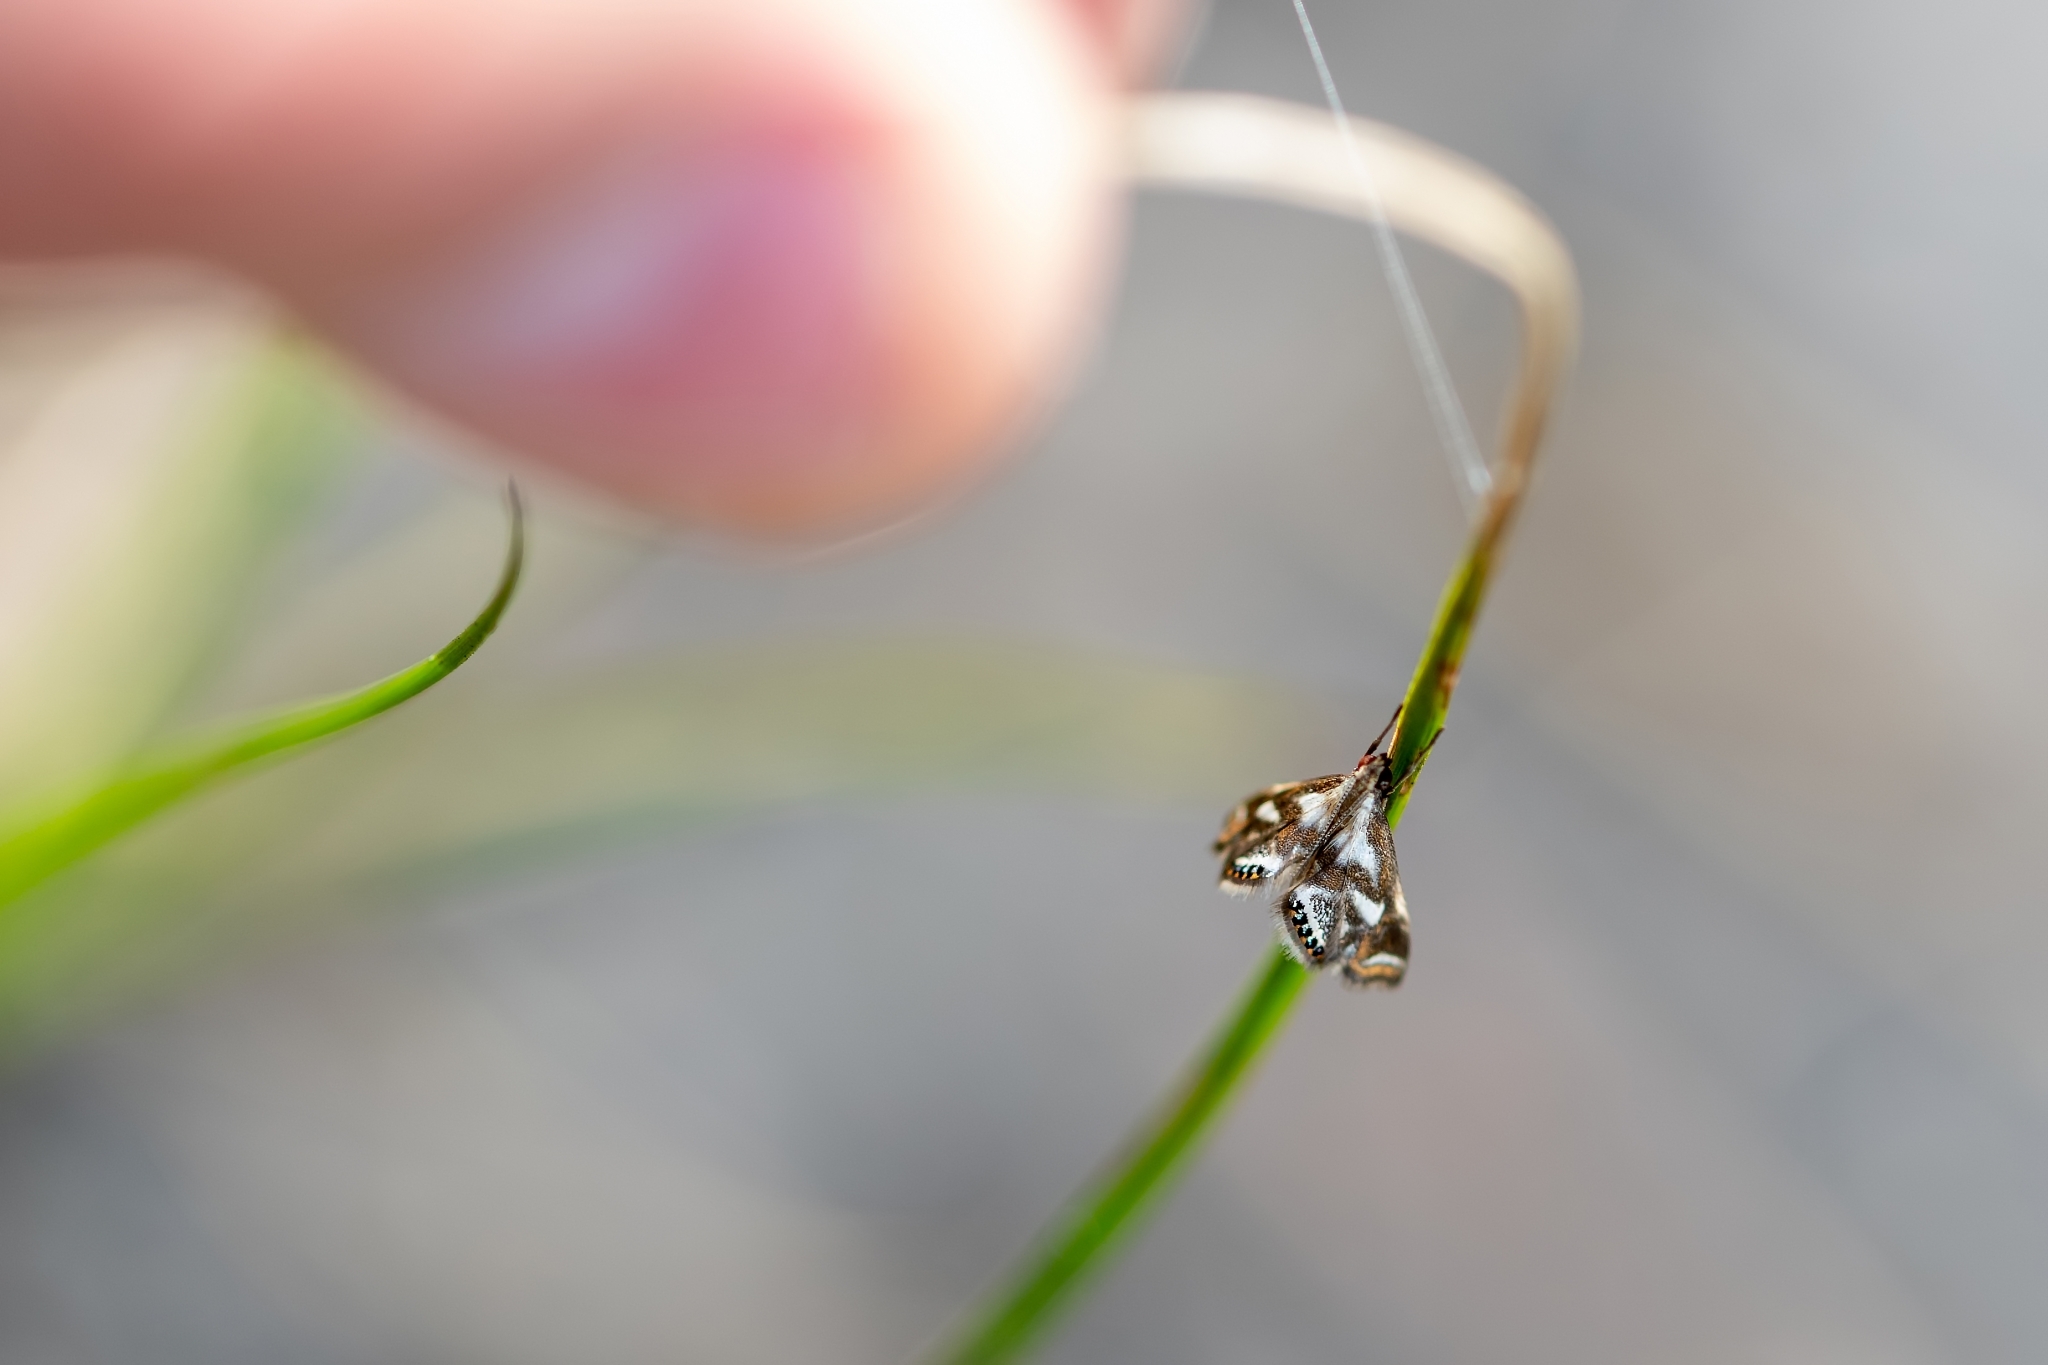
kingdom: Animalia
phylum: Arthropoda
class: Insecta
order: Lepidoptera
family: Crambidae
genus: Chrysendeton
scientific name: Chrysendeton medicinalis
